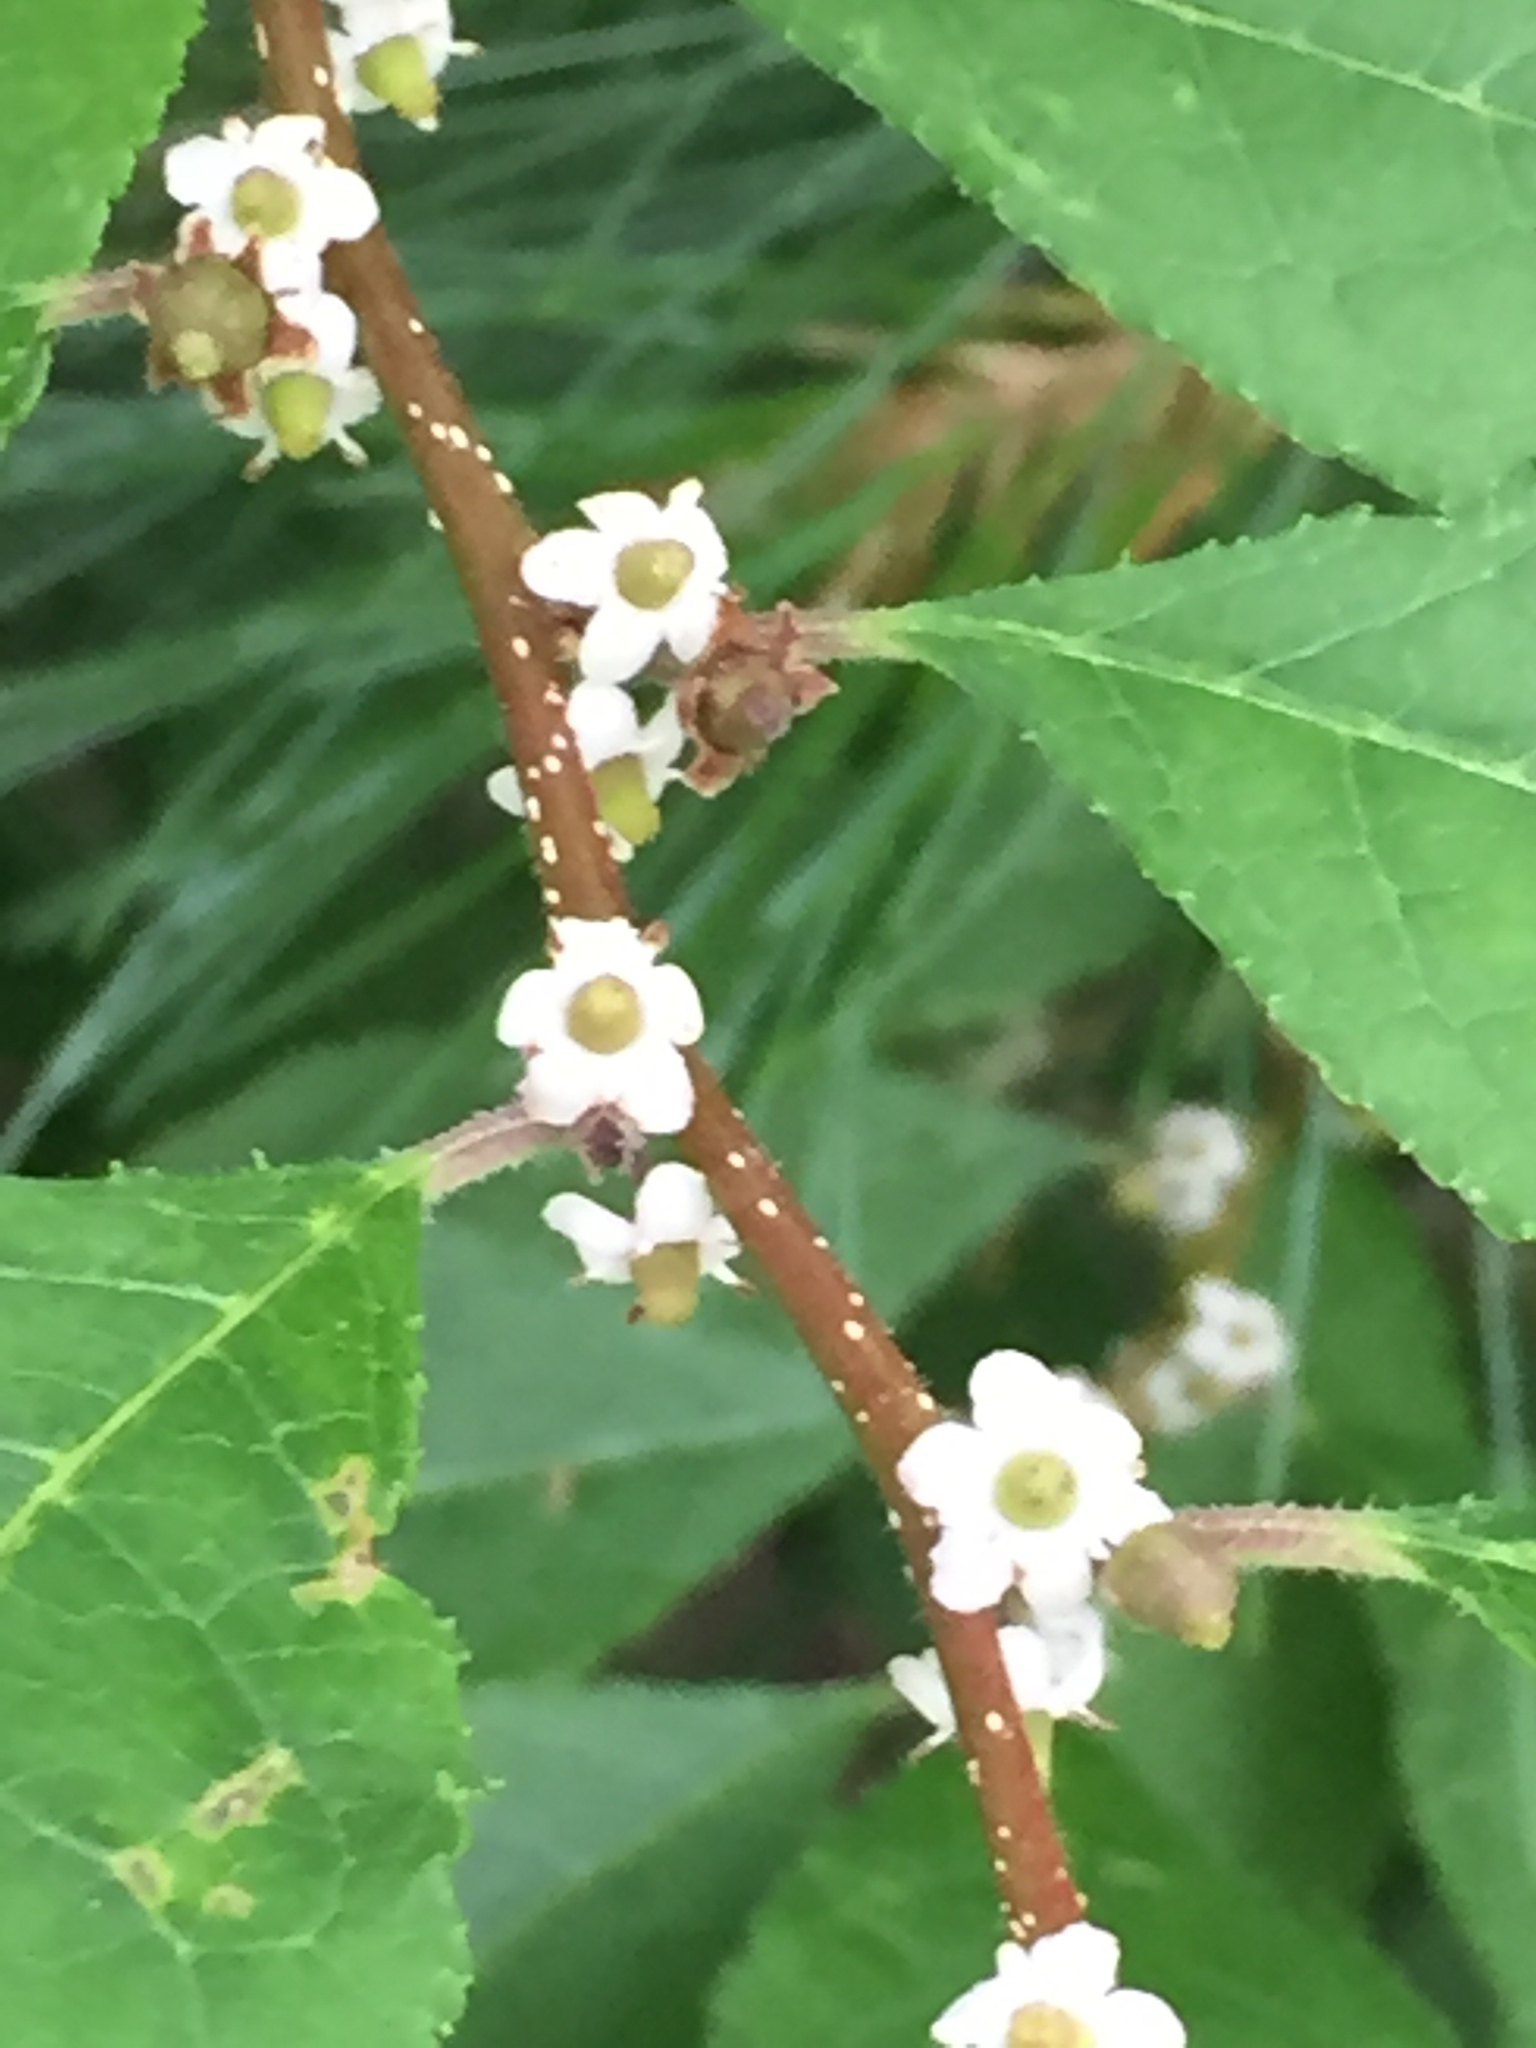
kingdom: Plantae
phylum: Tracheophyta
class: Magnoliopsida
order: Aquifoliales
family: Aquifoliaceae
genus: Ilex
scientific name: Ilex verticillata
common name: Virginia winterberry
